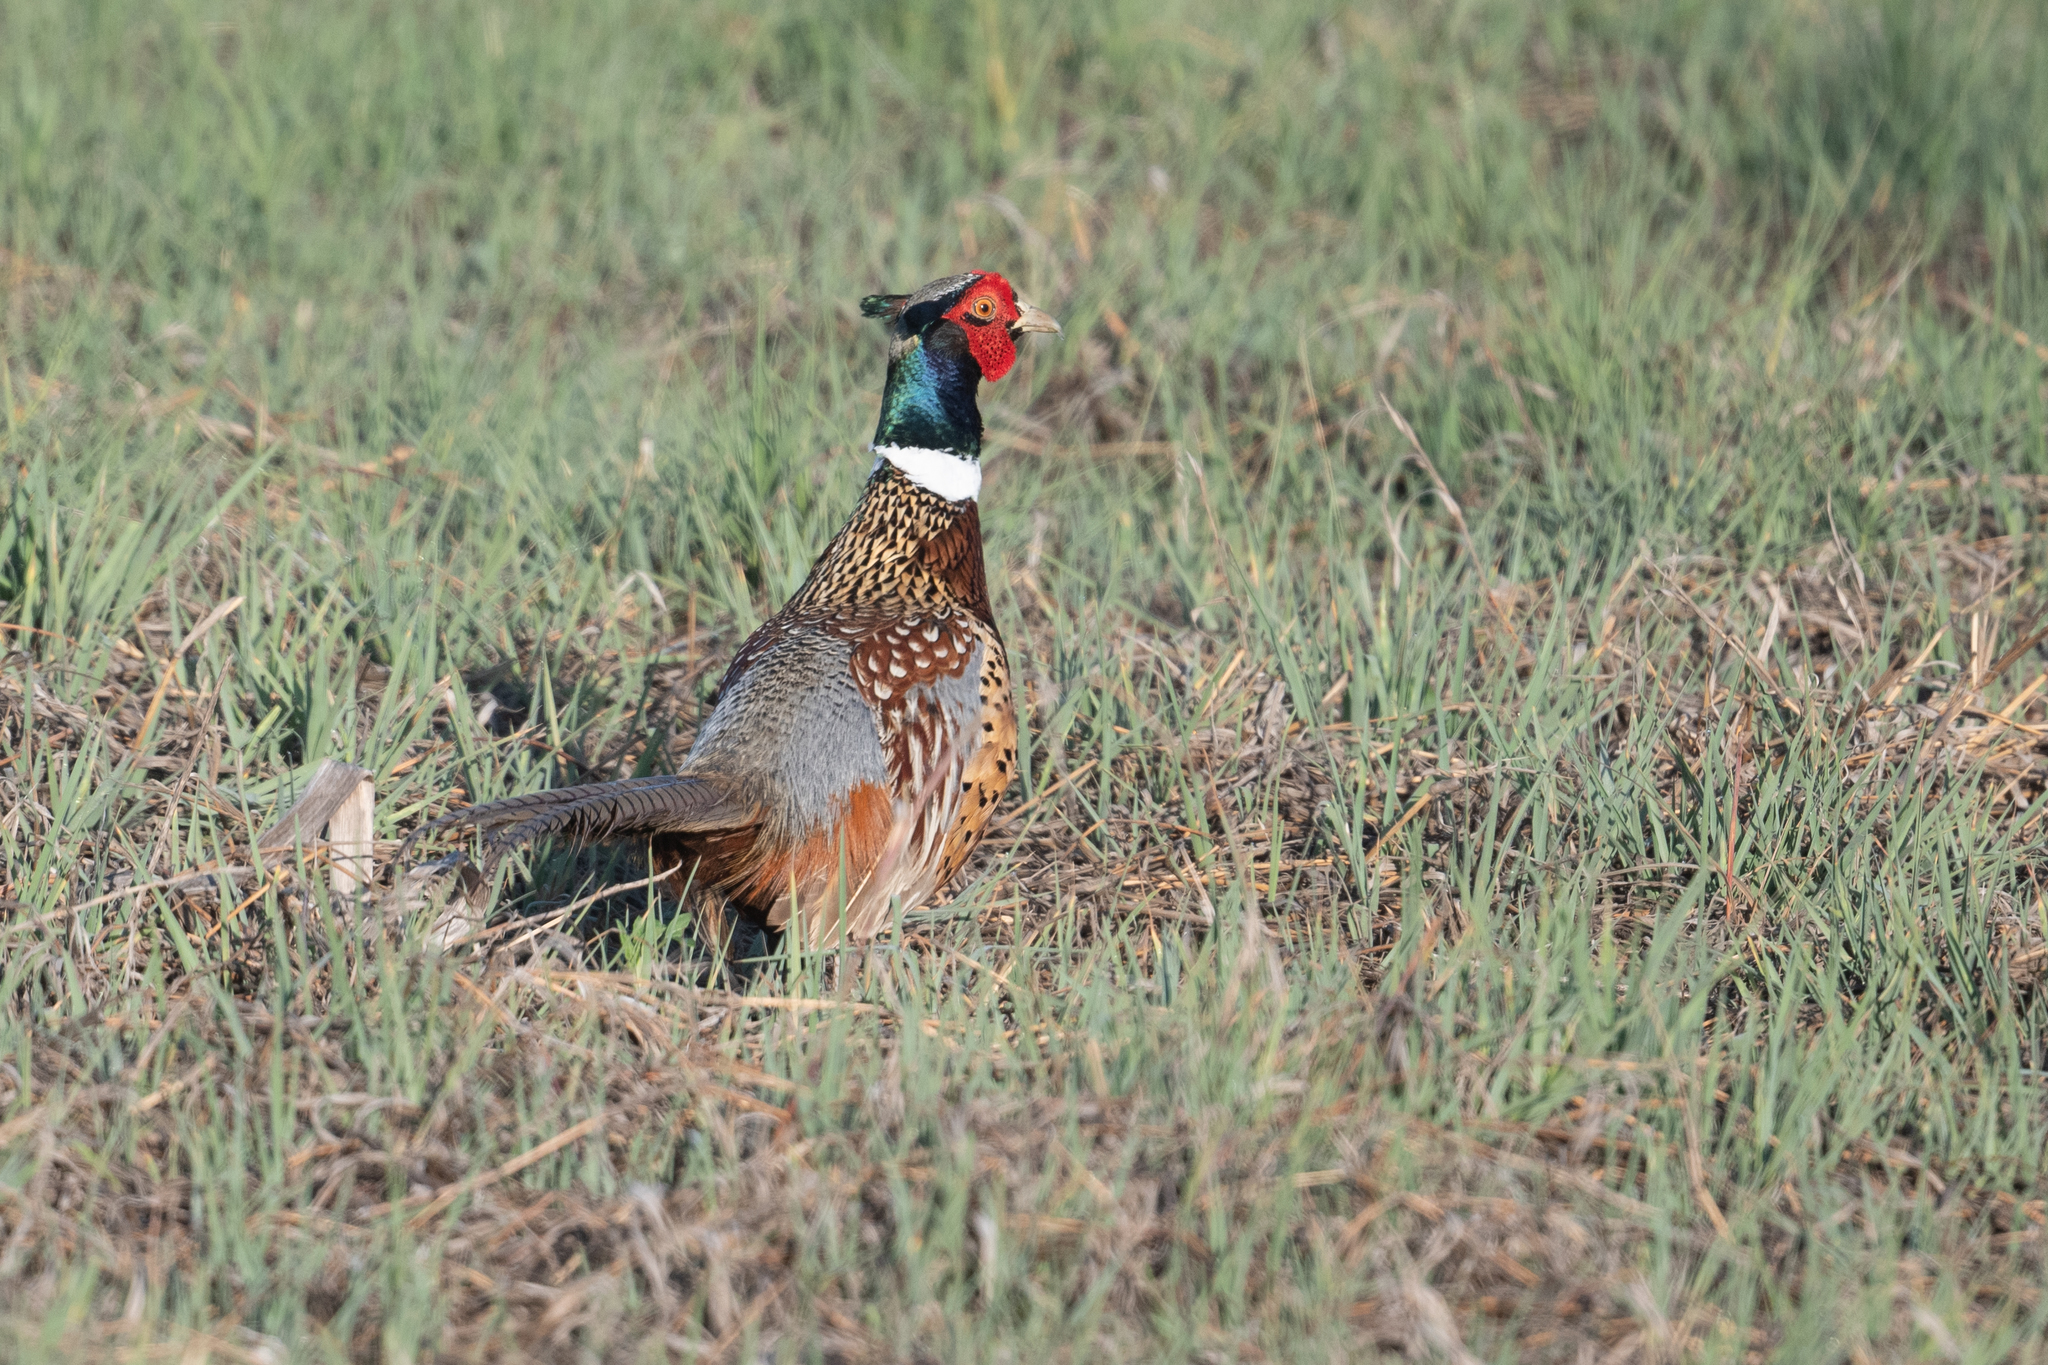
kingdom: Animalia
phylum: Chordata
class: Aves
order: Galliformes
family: Phasianidae
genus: Phasianus
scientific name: Phasianus colchicus
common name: Common pheasant
